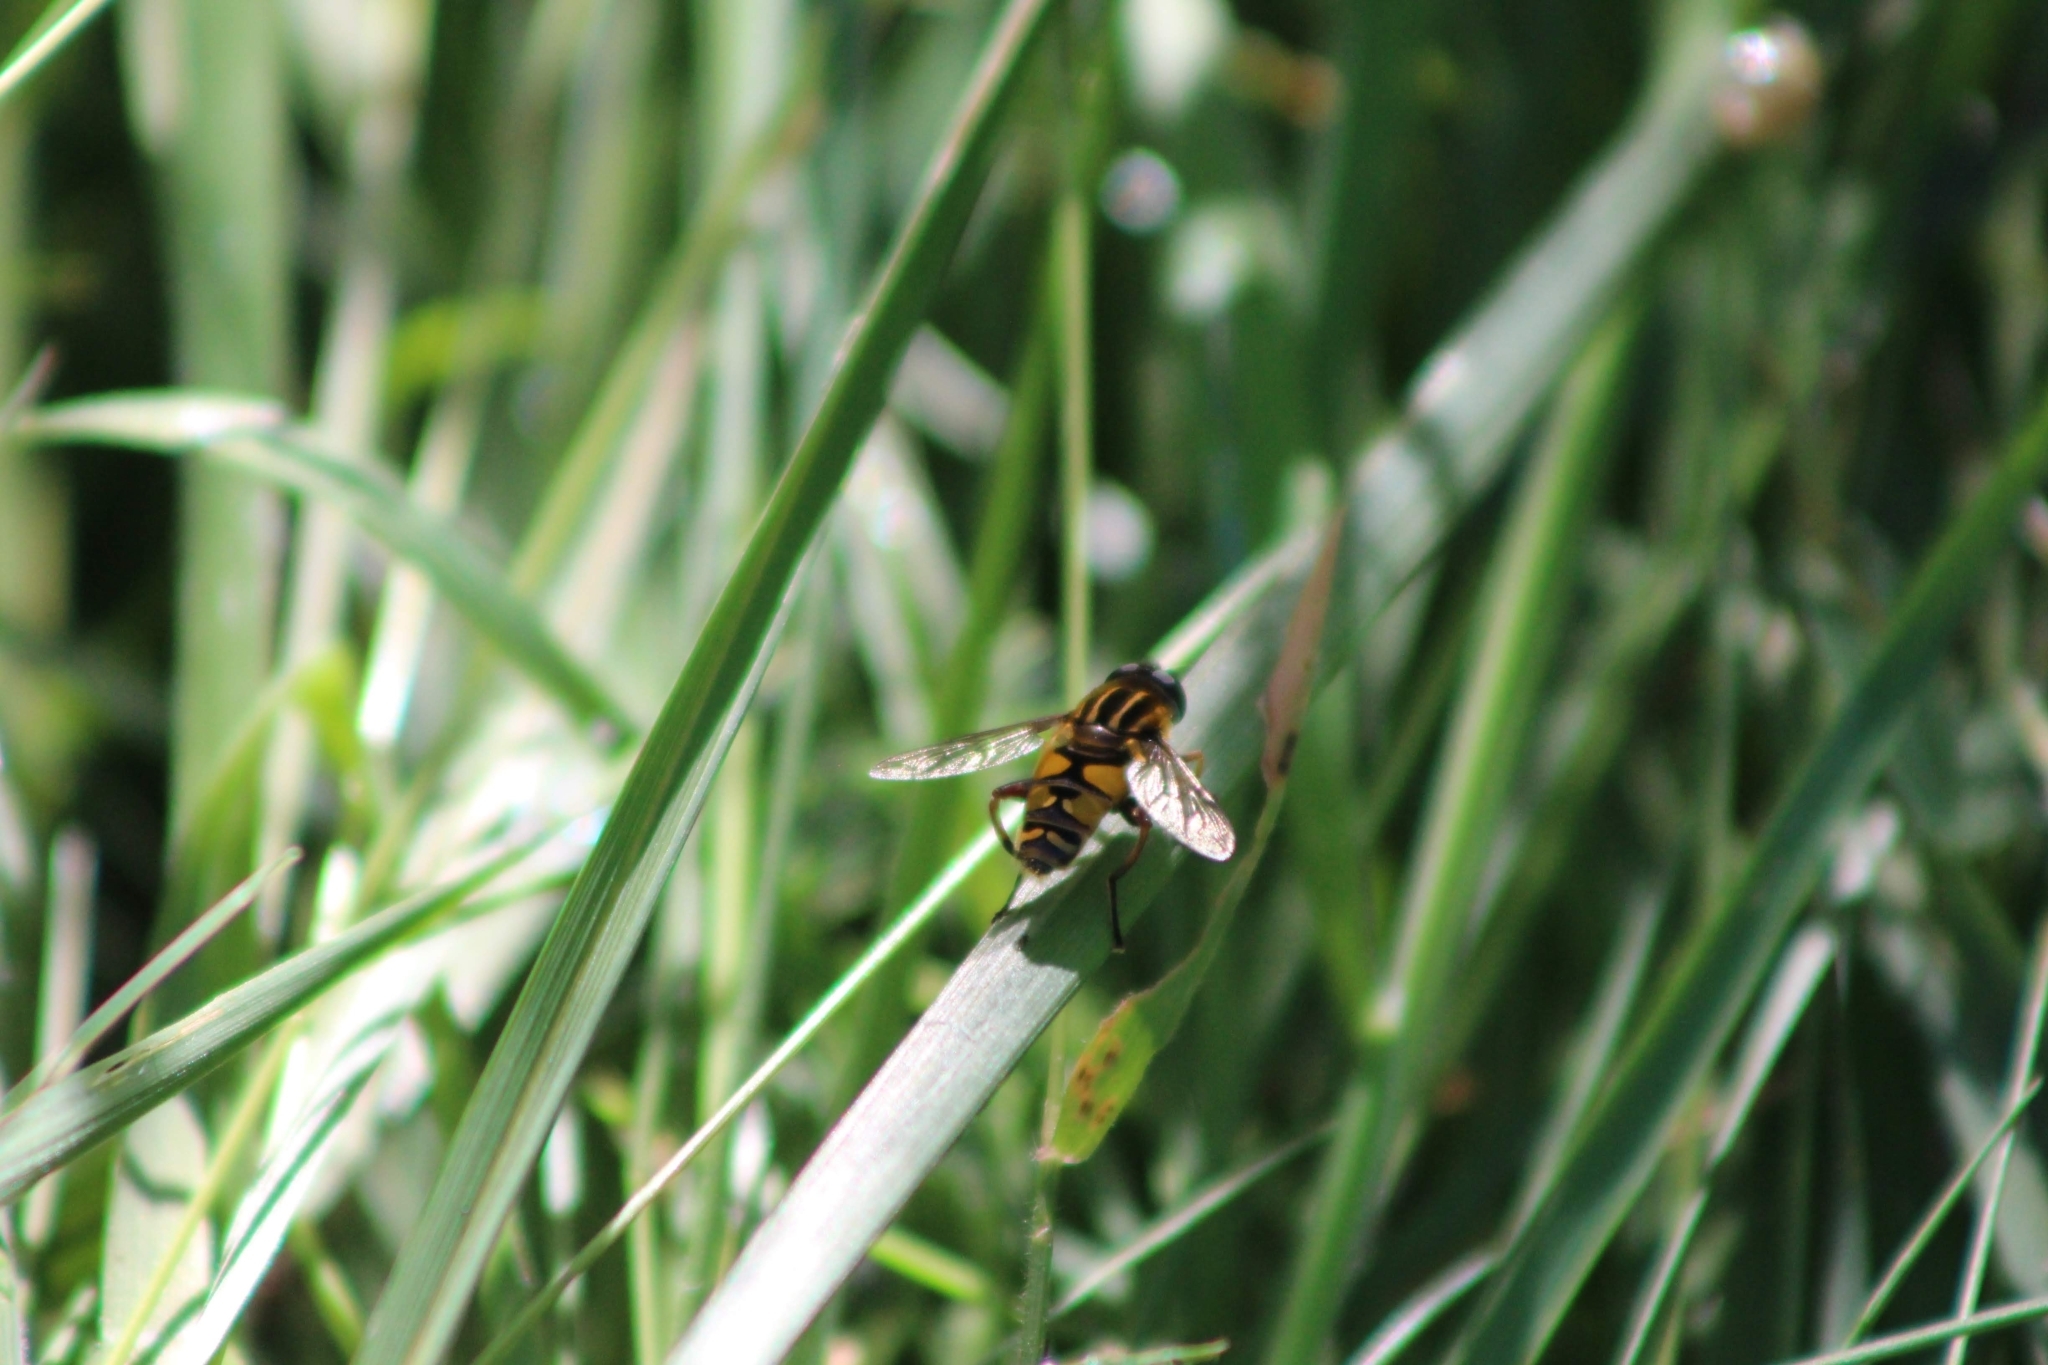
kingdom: Animalia
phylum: Arthropoda
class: Insecta
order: Diptera
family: Syrphidae
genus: Helophilus
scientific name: Helophilus pendulus
